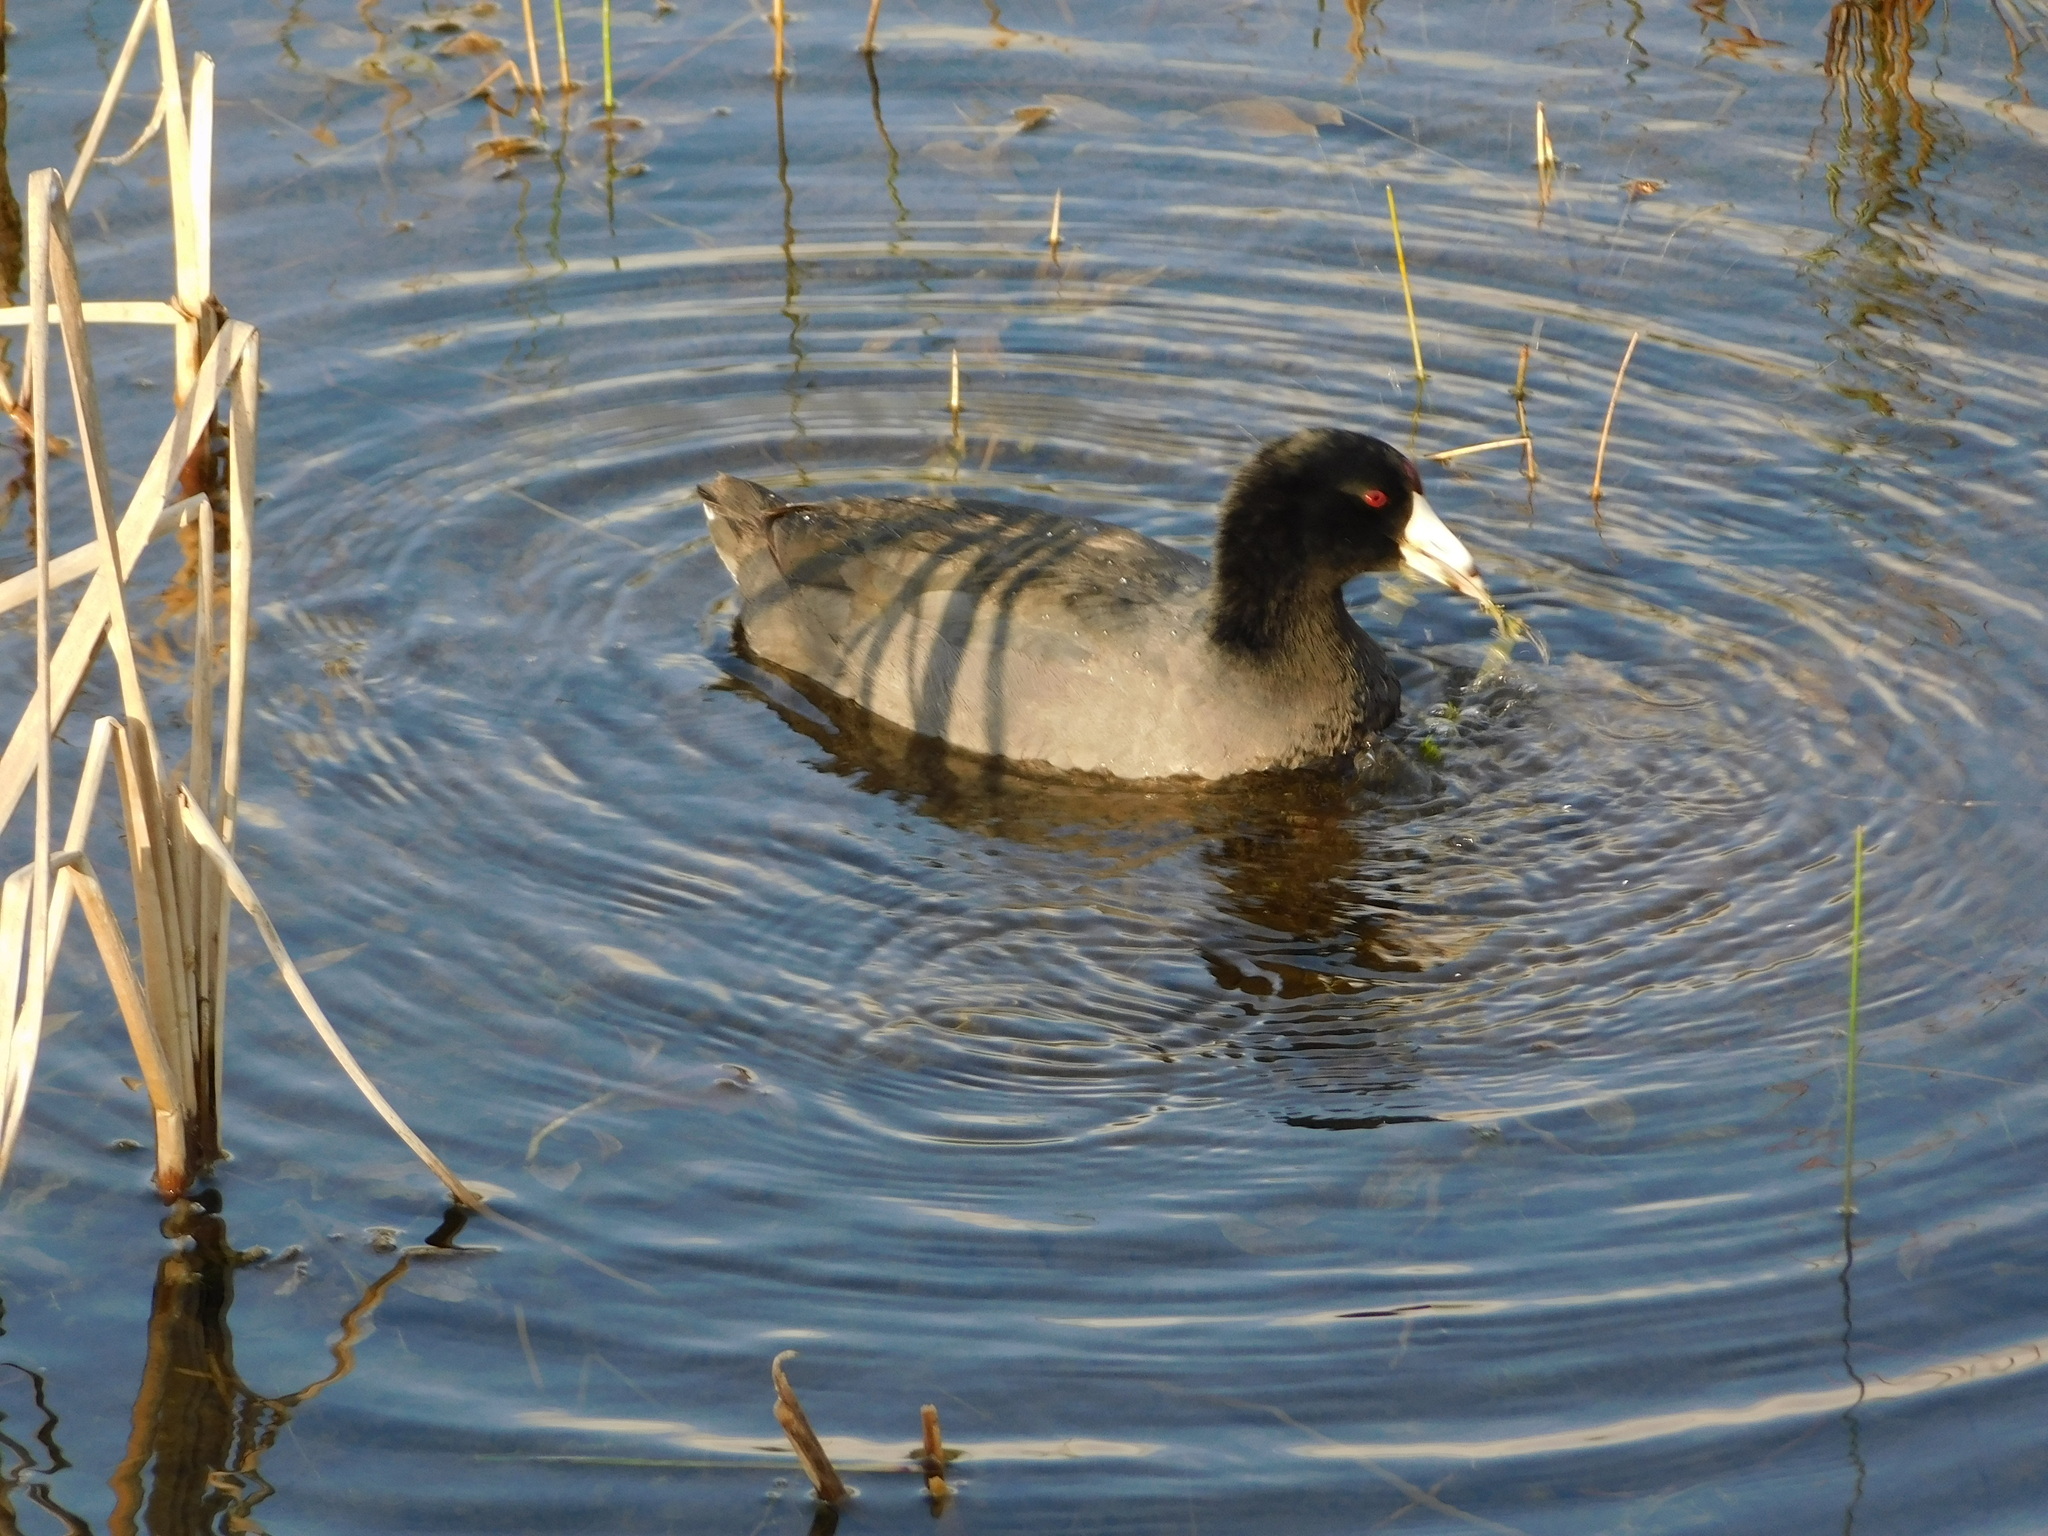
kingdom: Animalia
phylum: Chordata
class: Aves
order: Gruiformes
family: Rallidae
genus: Fulica
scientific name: Fulica americana
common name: American coot
